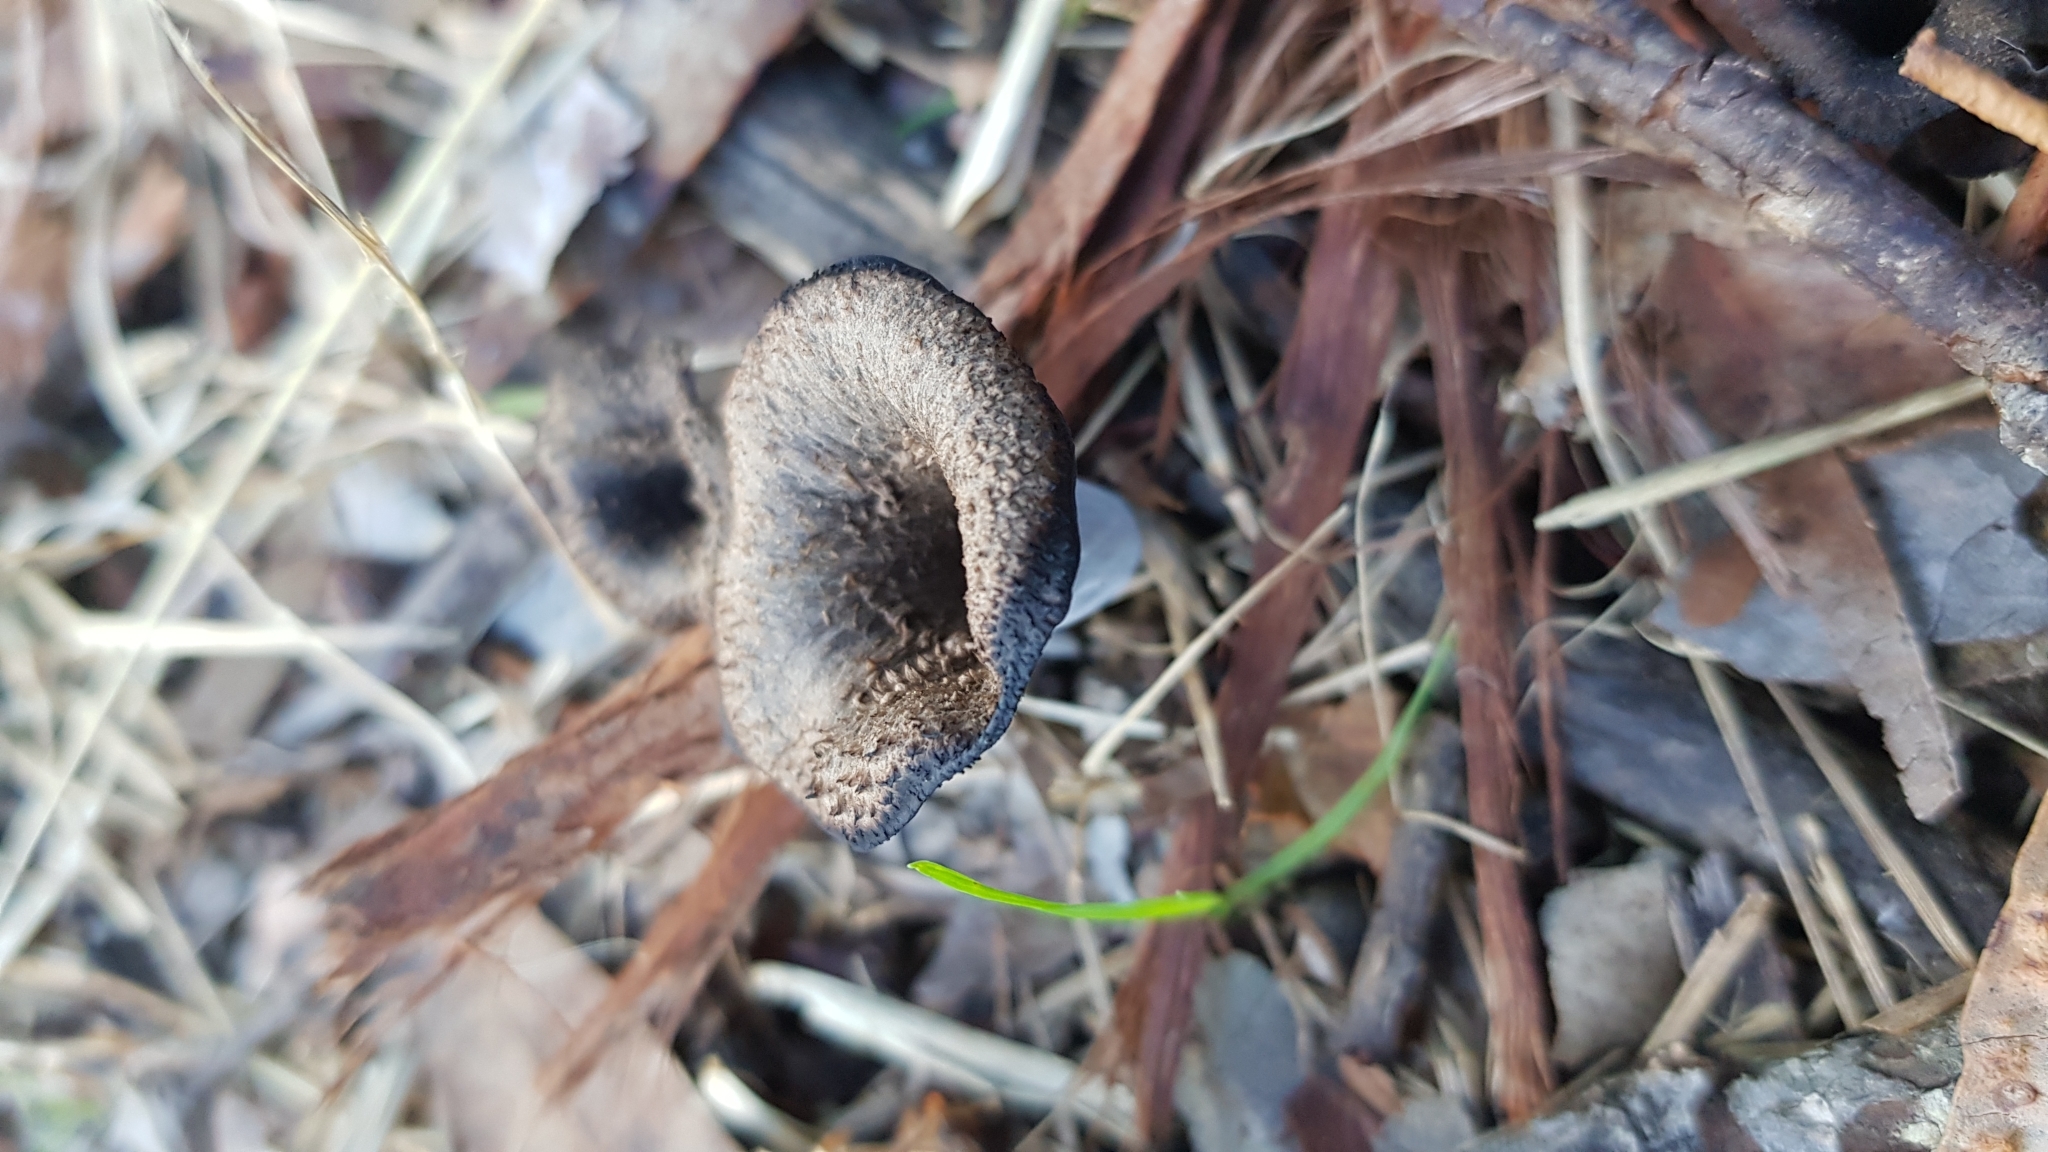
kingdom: Fungi
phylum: Basidiomycota
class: Agaricomycetes
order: Cantharellales
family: Hydnaceae
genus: Craterellus
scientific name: Craterellus cornucopioides
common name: Horn of plenty
